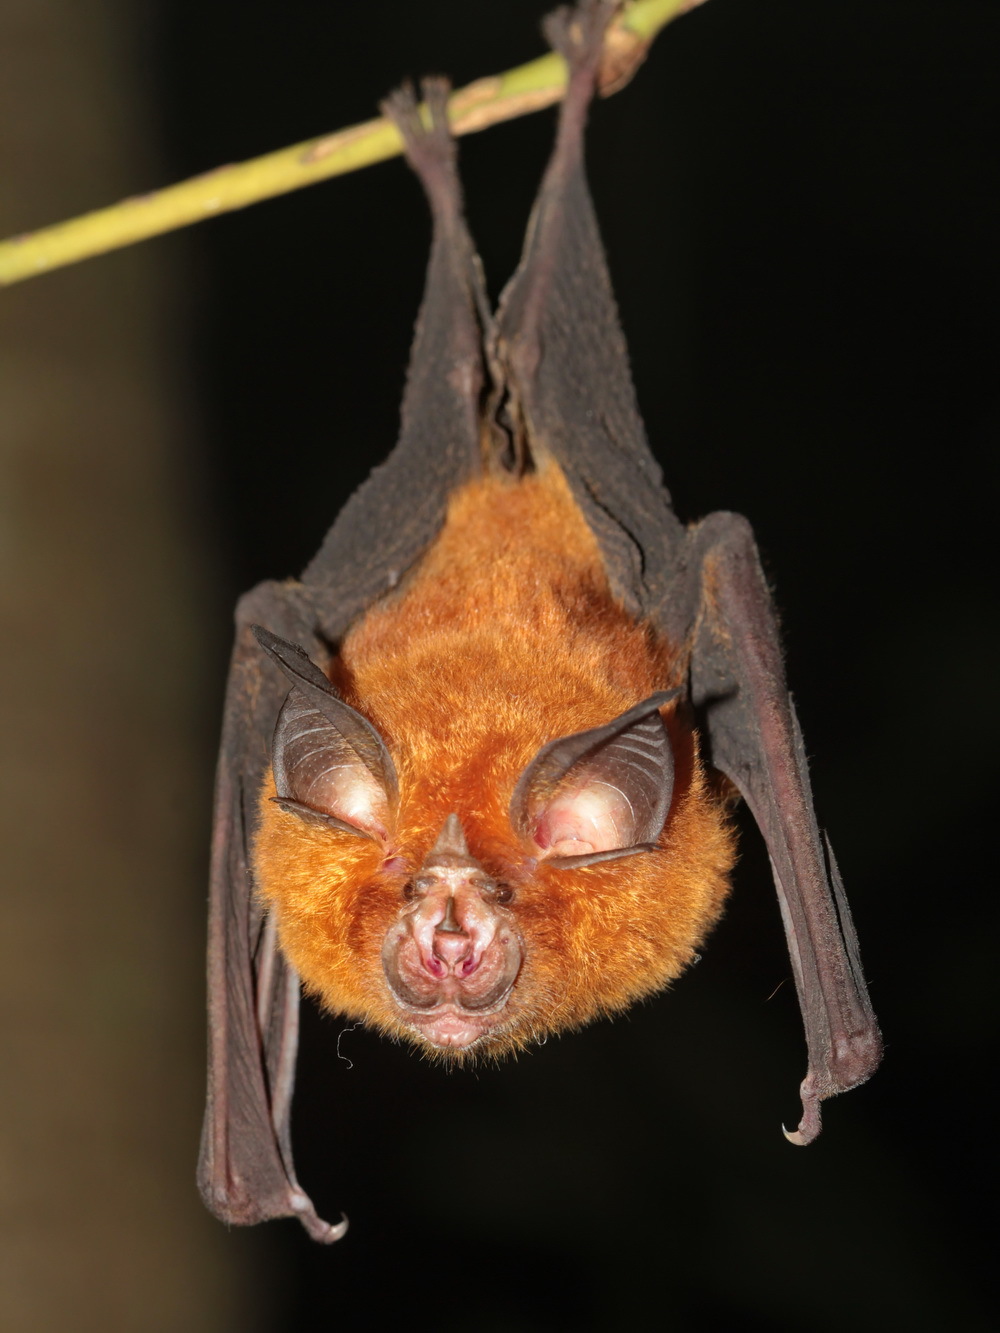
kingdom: Animalia
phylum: Chordata
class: Mammalia
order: Chiroptera
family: Rhinolophidae
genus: Rhinolophus
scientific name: Rhinolophus affinis
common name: Intermediate horseshoe bat
